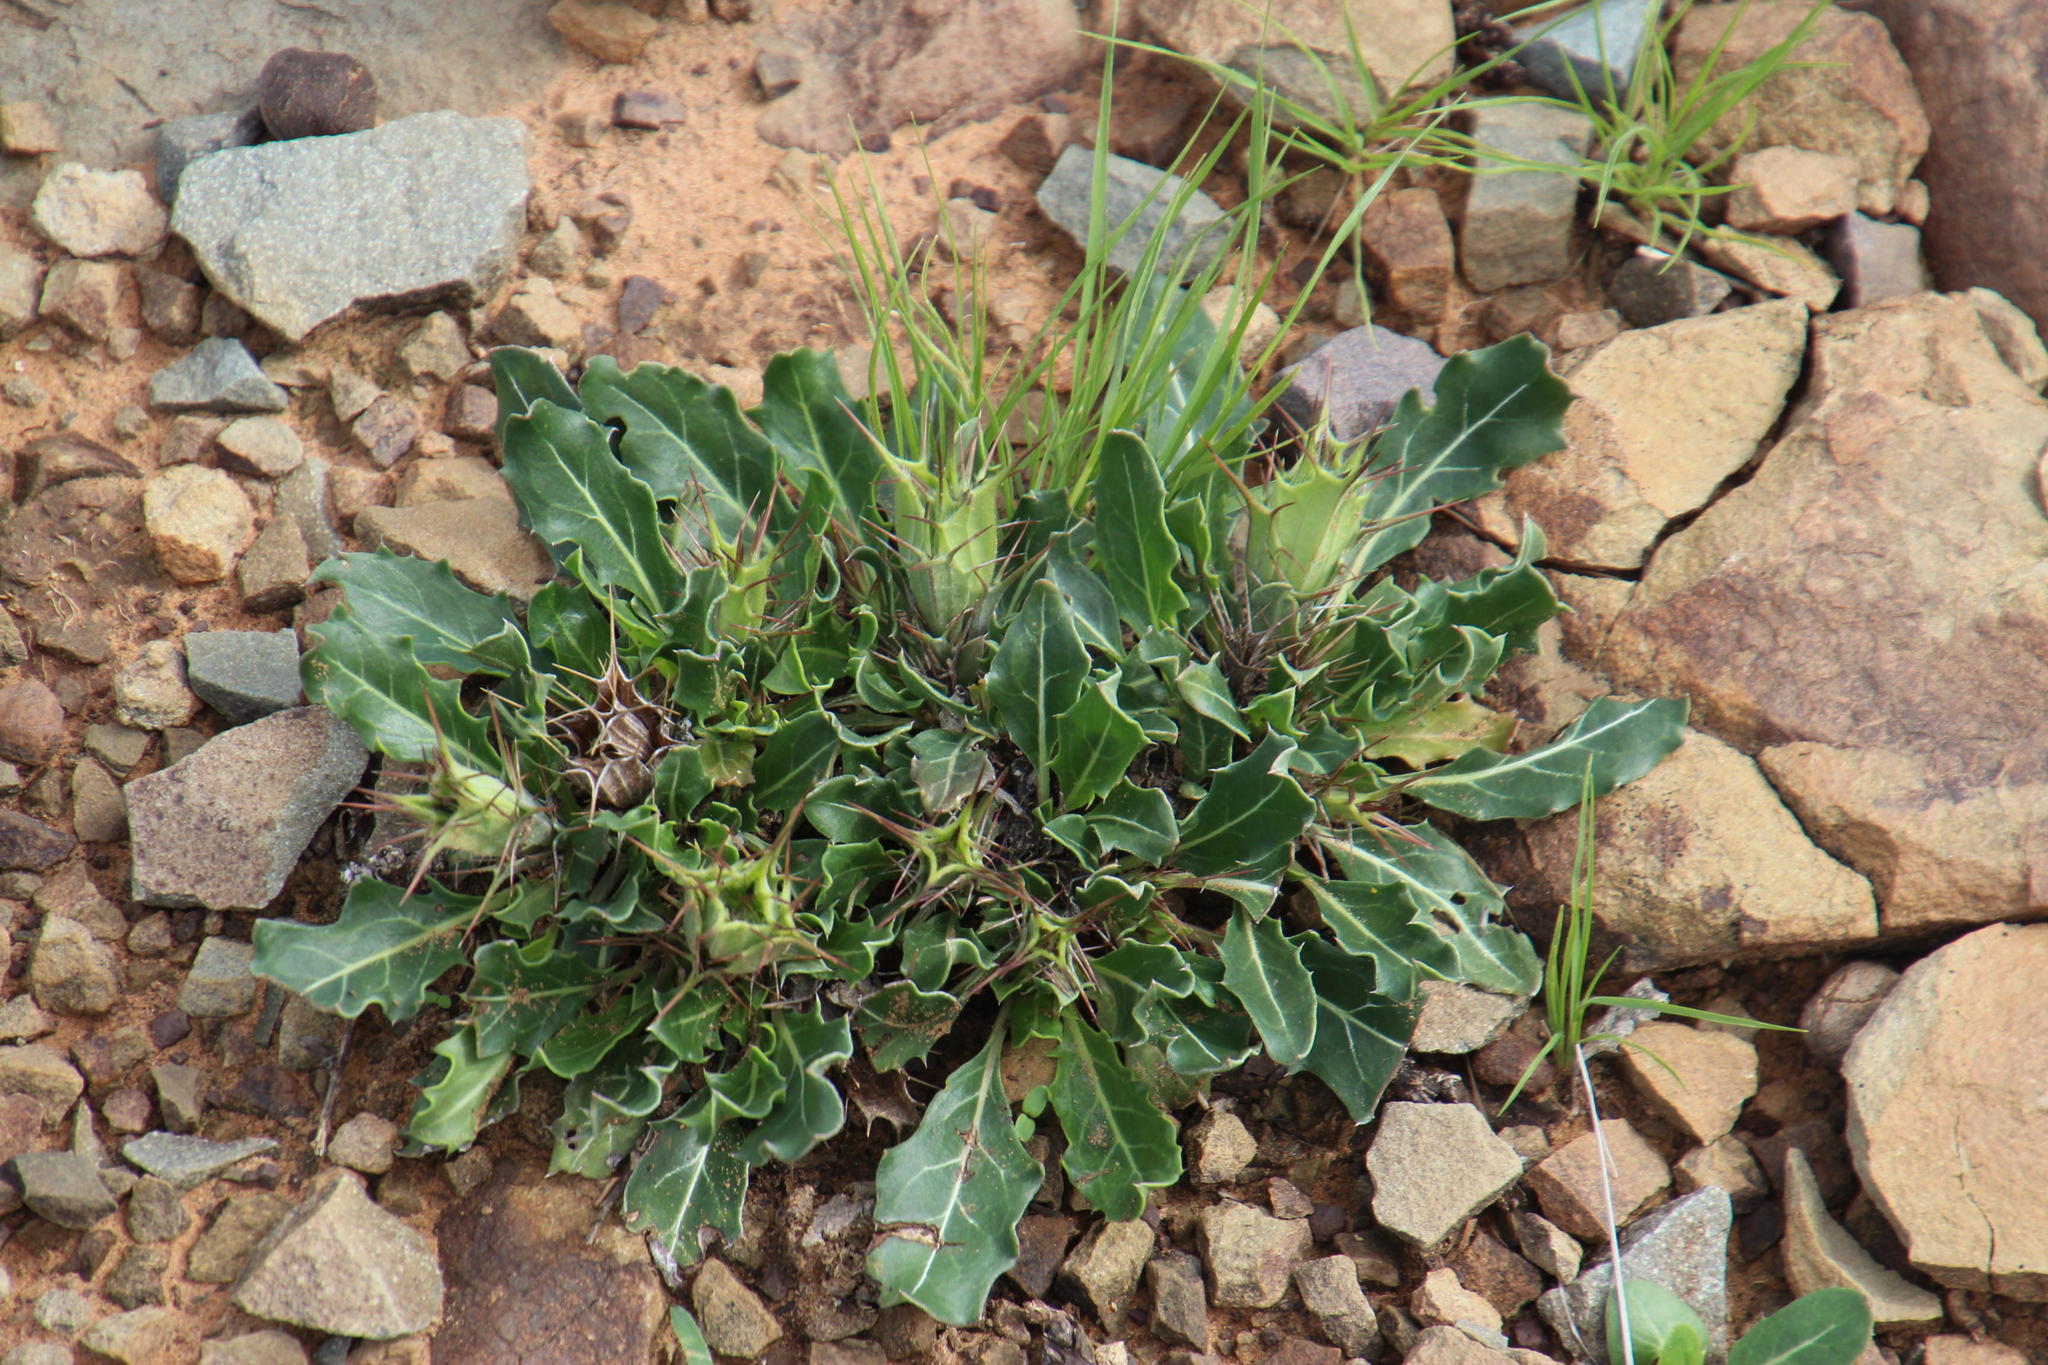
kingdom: Plantae
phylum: Tracheophyta
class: Magnoliopsida
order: Lamiales
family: Acanthaceae
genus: Blepharis
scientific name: Blepharis mitrata
